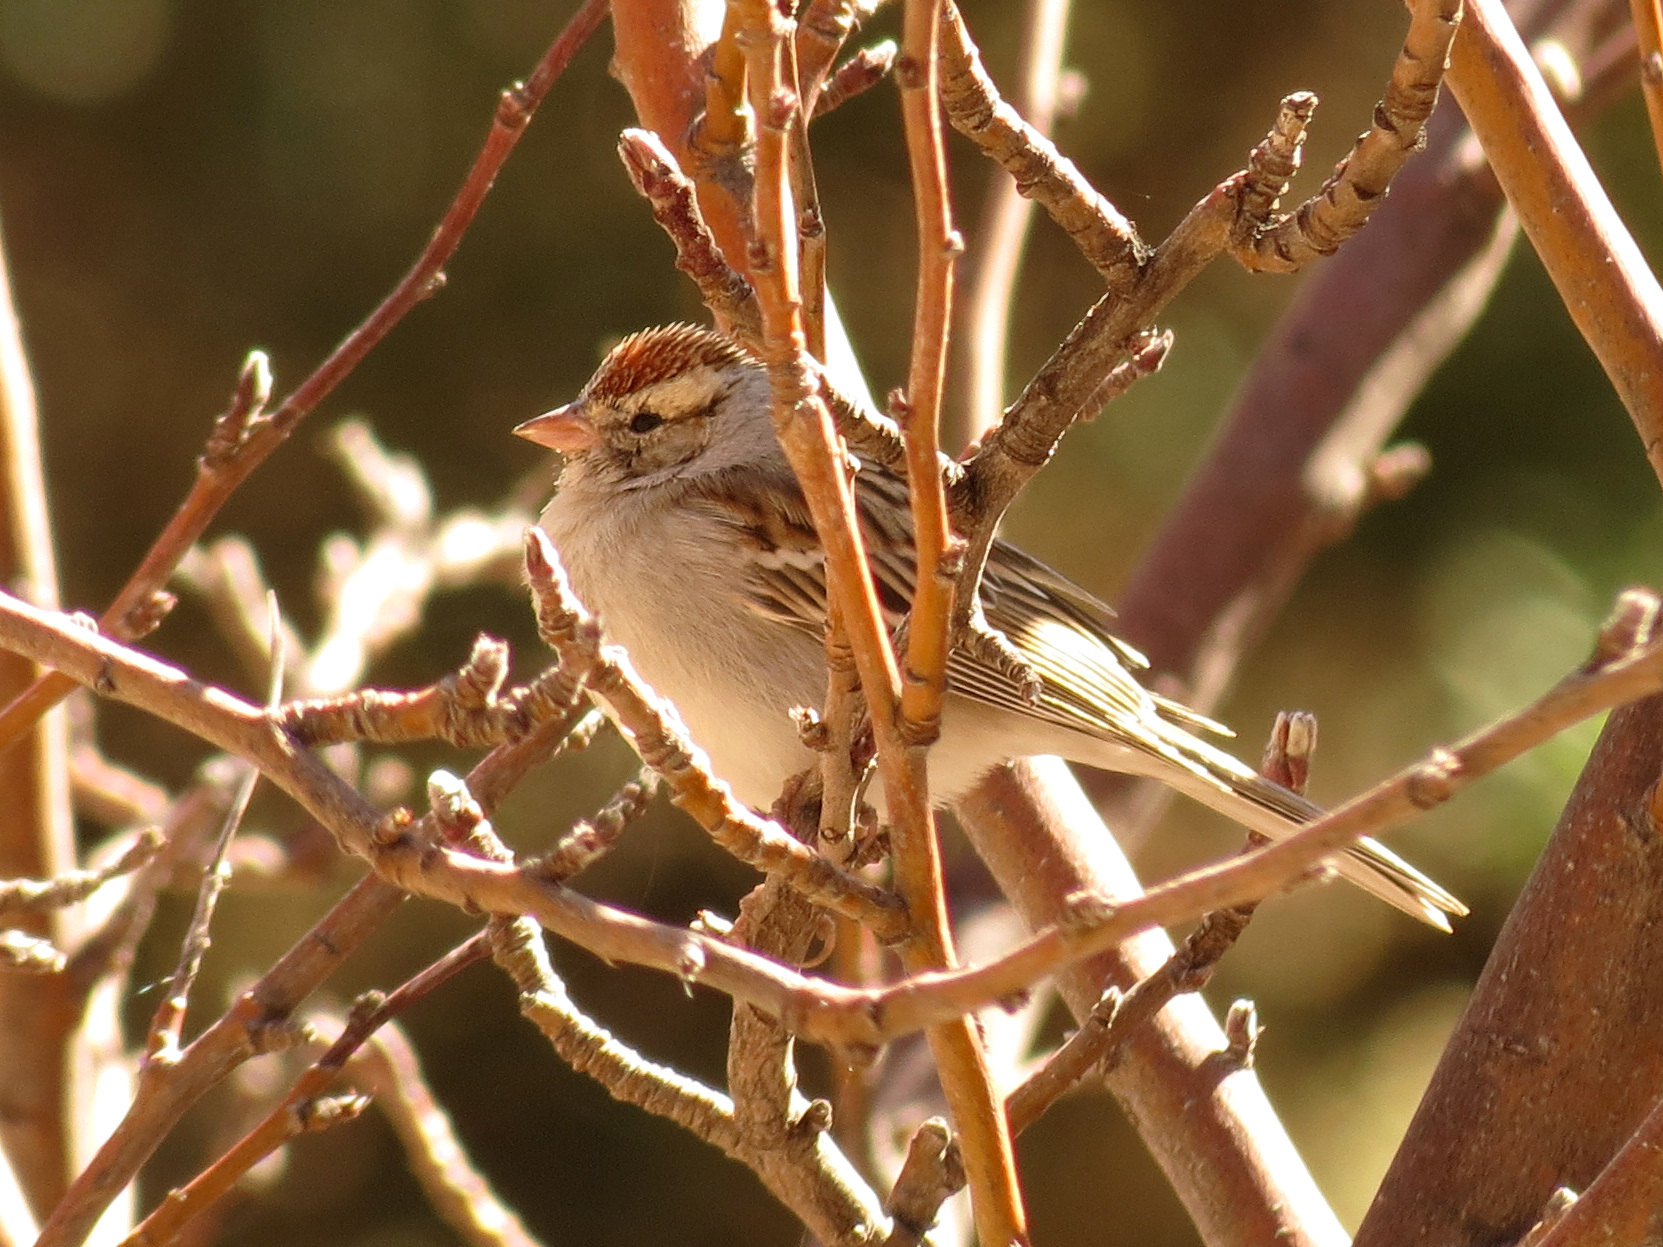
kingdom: Animalia
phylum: Chordata
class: Aves
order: Passeriformes
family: Passerellidae
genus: Spizella
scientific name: Spizella passerina
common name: Chipping sparrow
